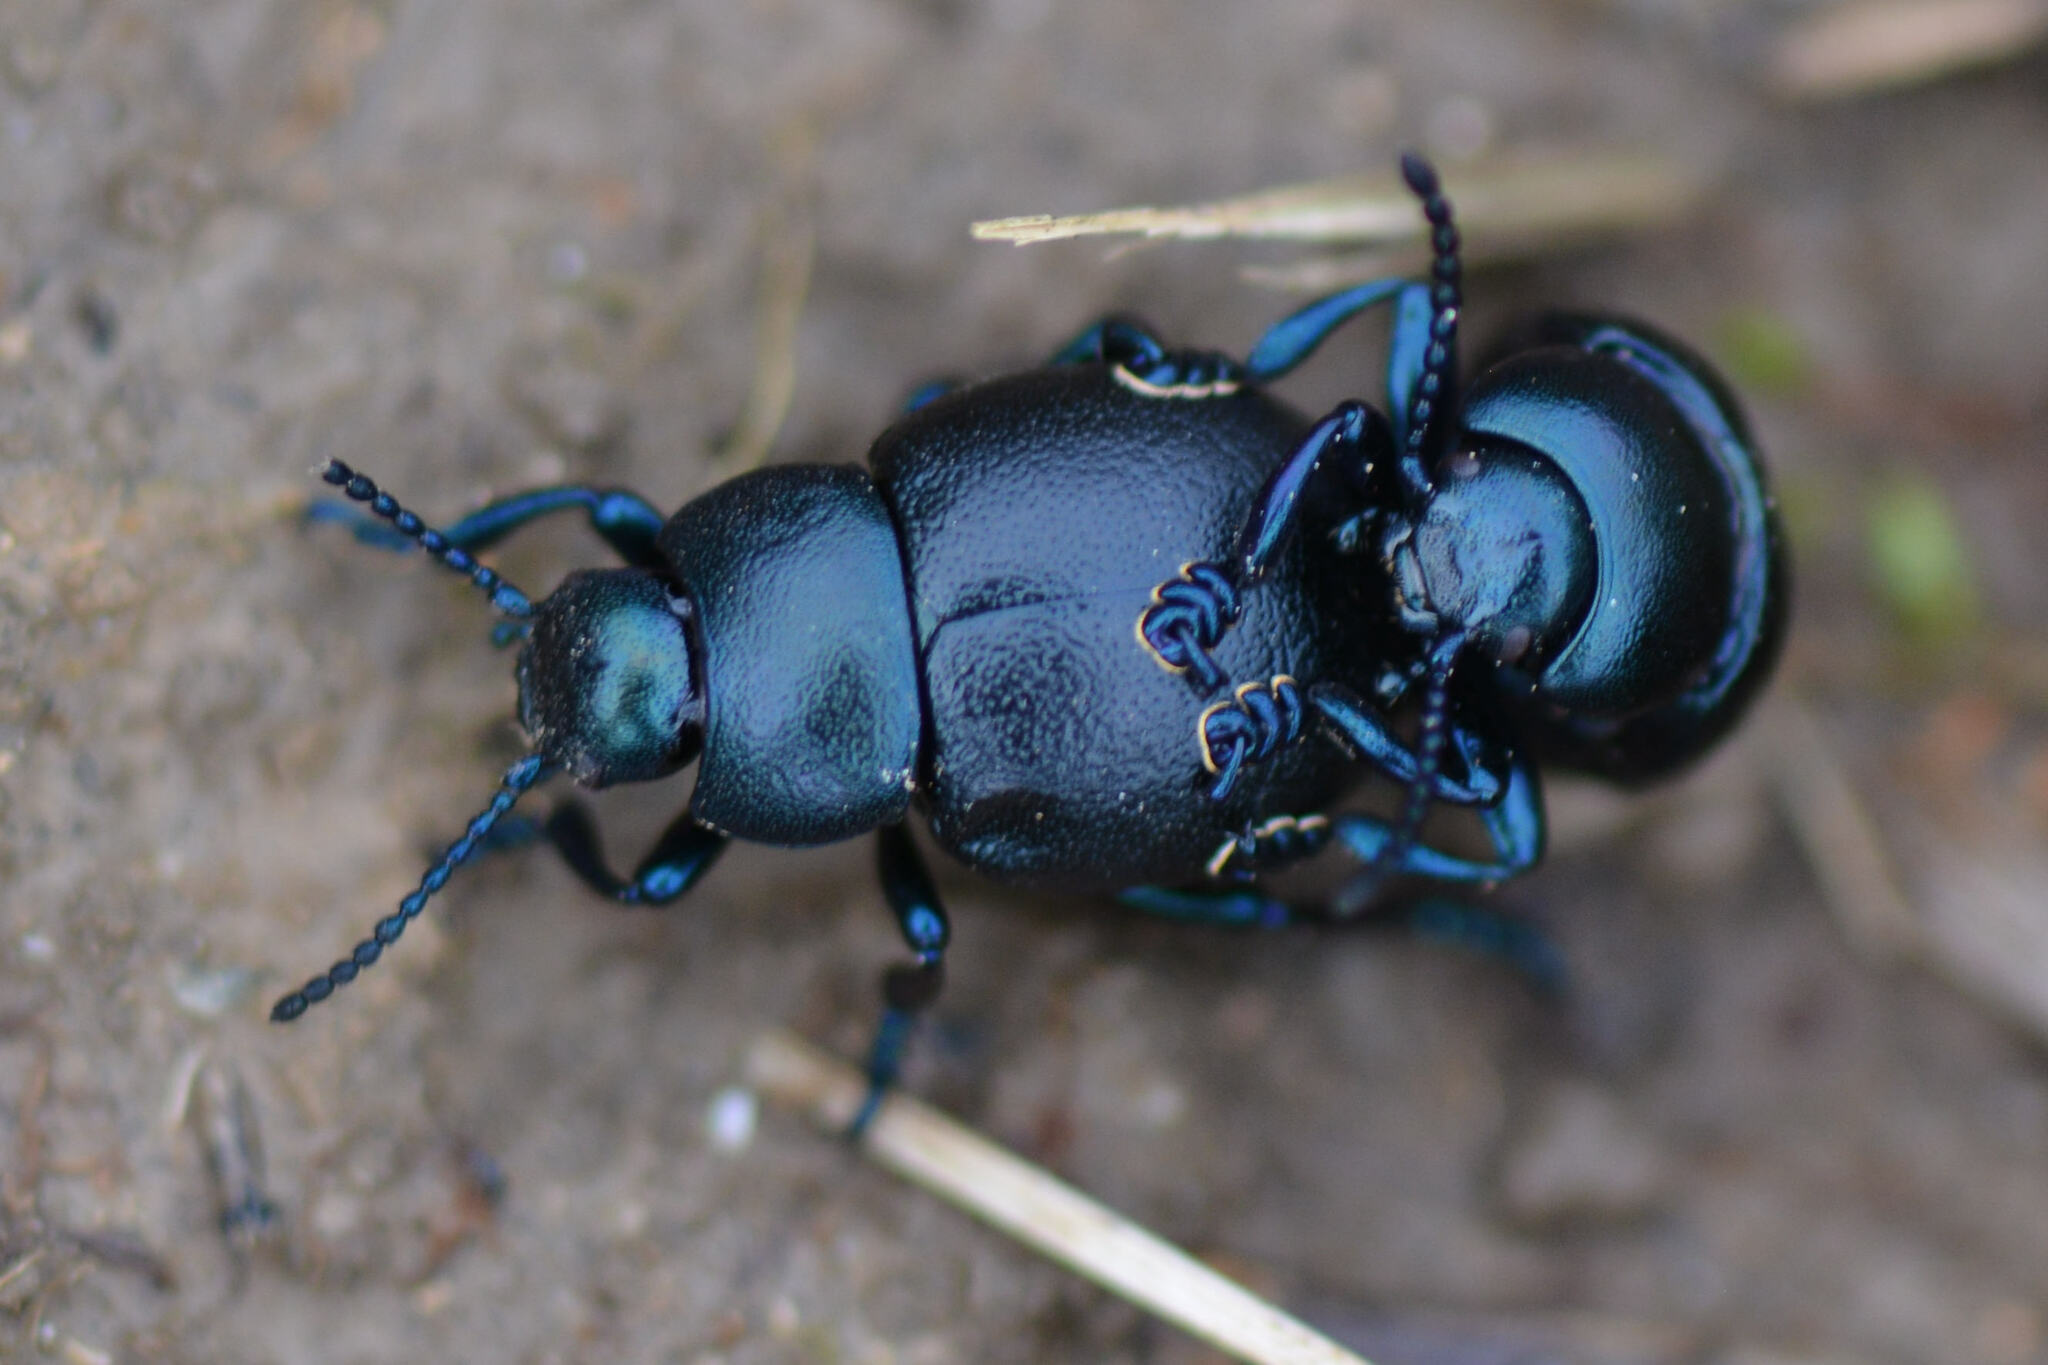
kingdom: Animalia
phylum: Arthropoda
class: Insecta
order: Coleoptera
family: Chrysomelidae
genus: Timarcha
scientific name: Timarcha goettingensis
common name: Small bloody-nosed beetle
